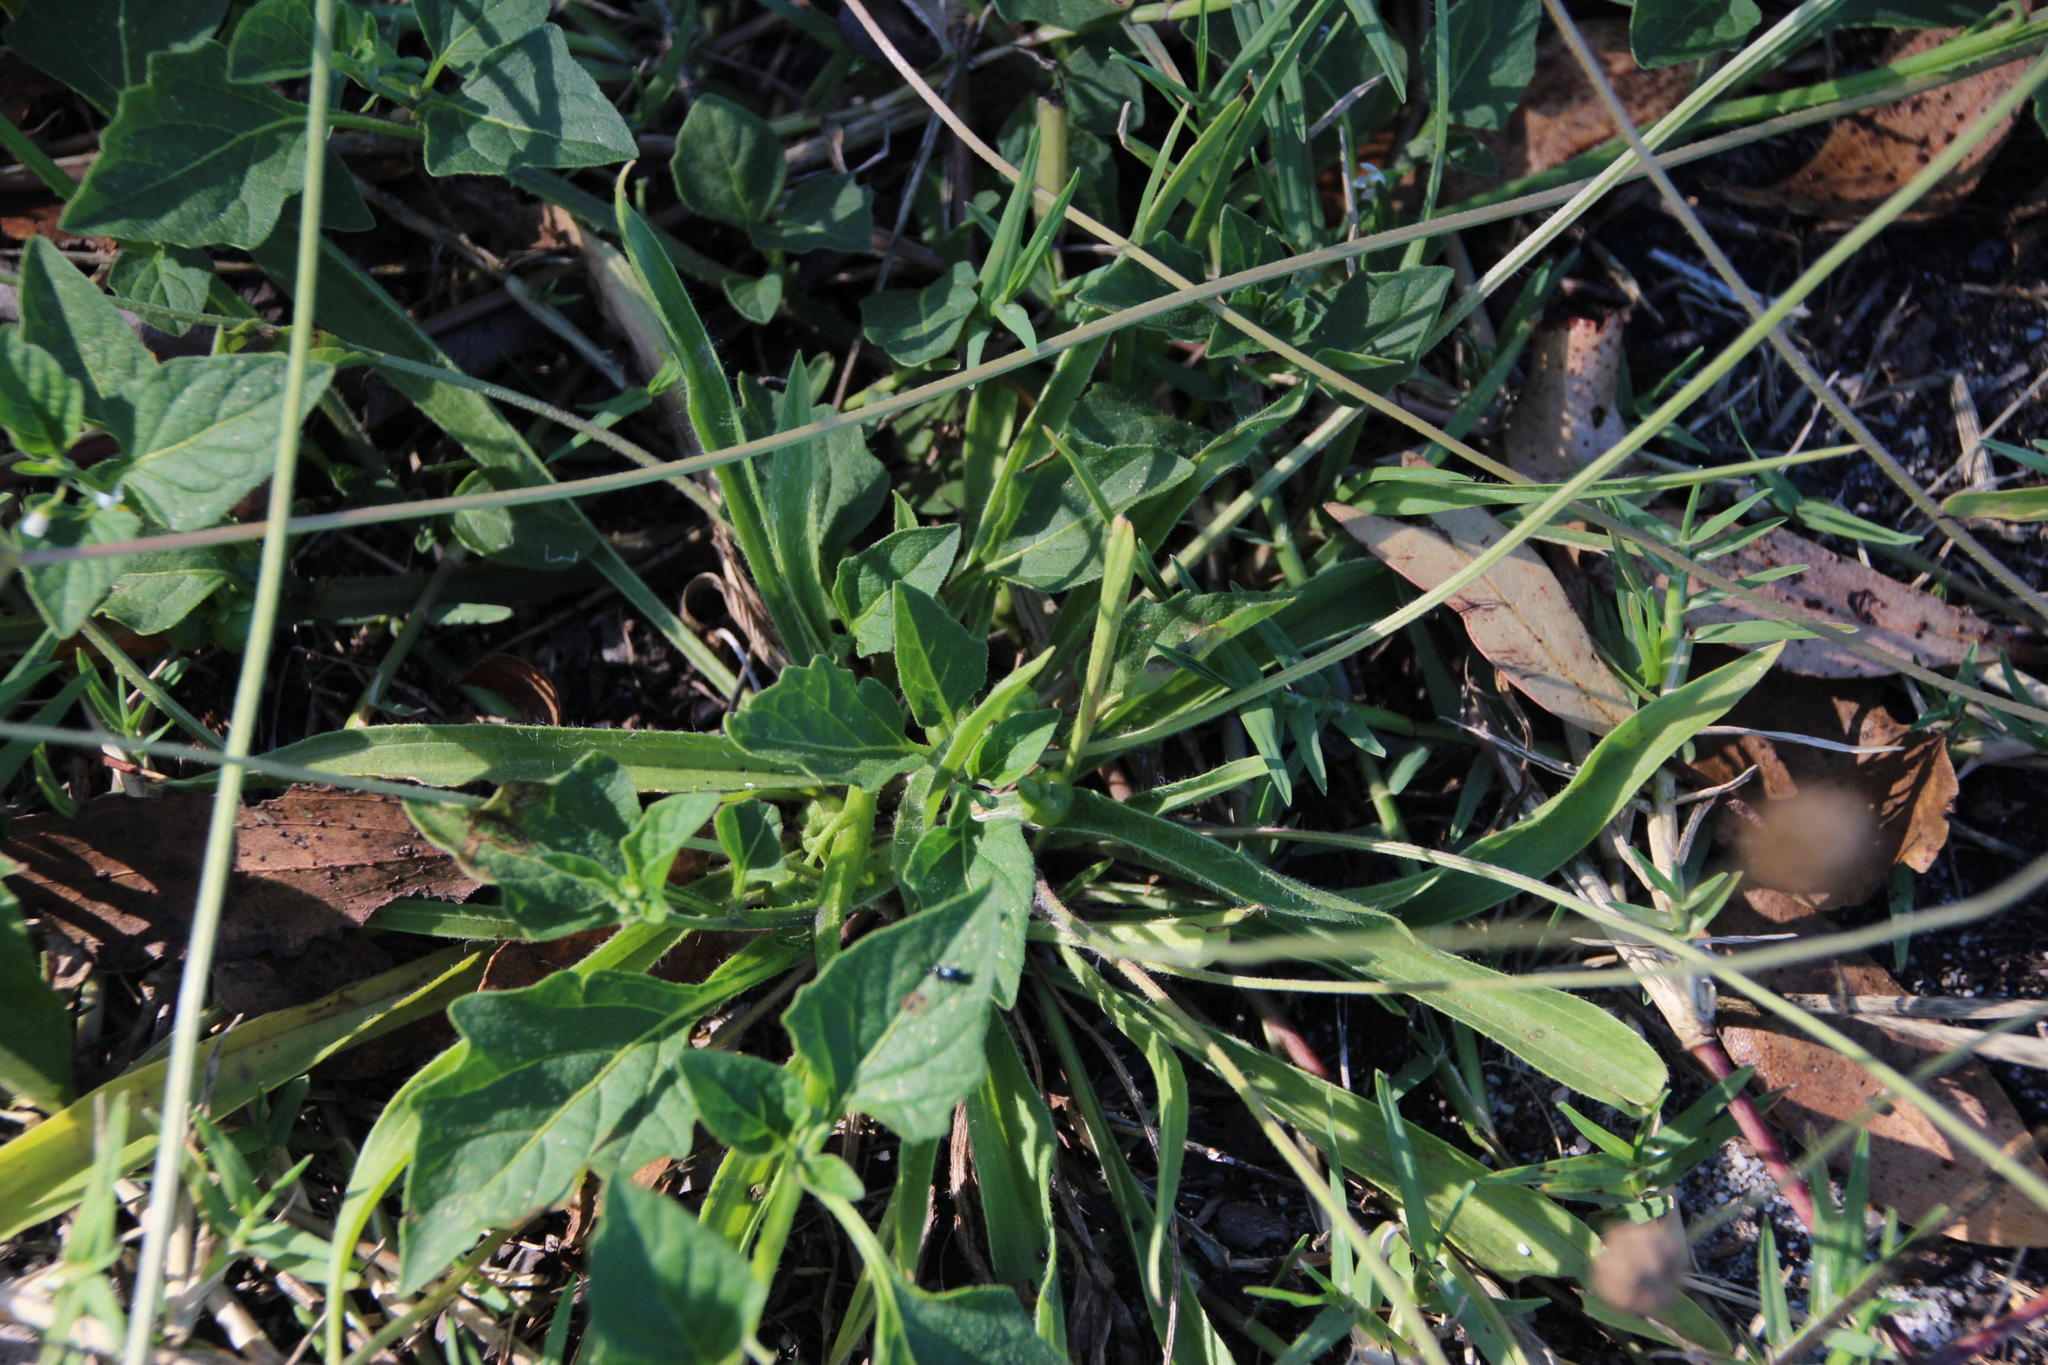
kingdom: Plantae
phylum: Tracheophyta
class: Magnoliopsida
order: Lamiales
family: Plantaginaceae
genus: Plantago
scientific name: Plantago lanceolata
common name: Ribwort plantain
